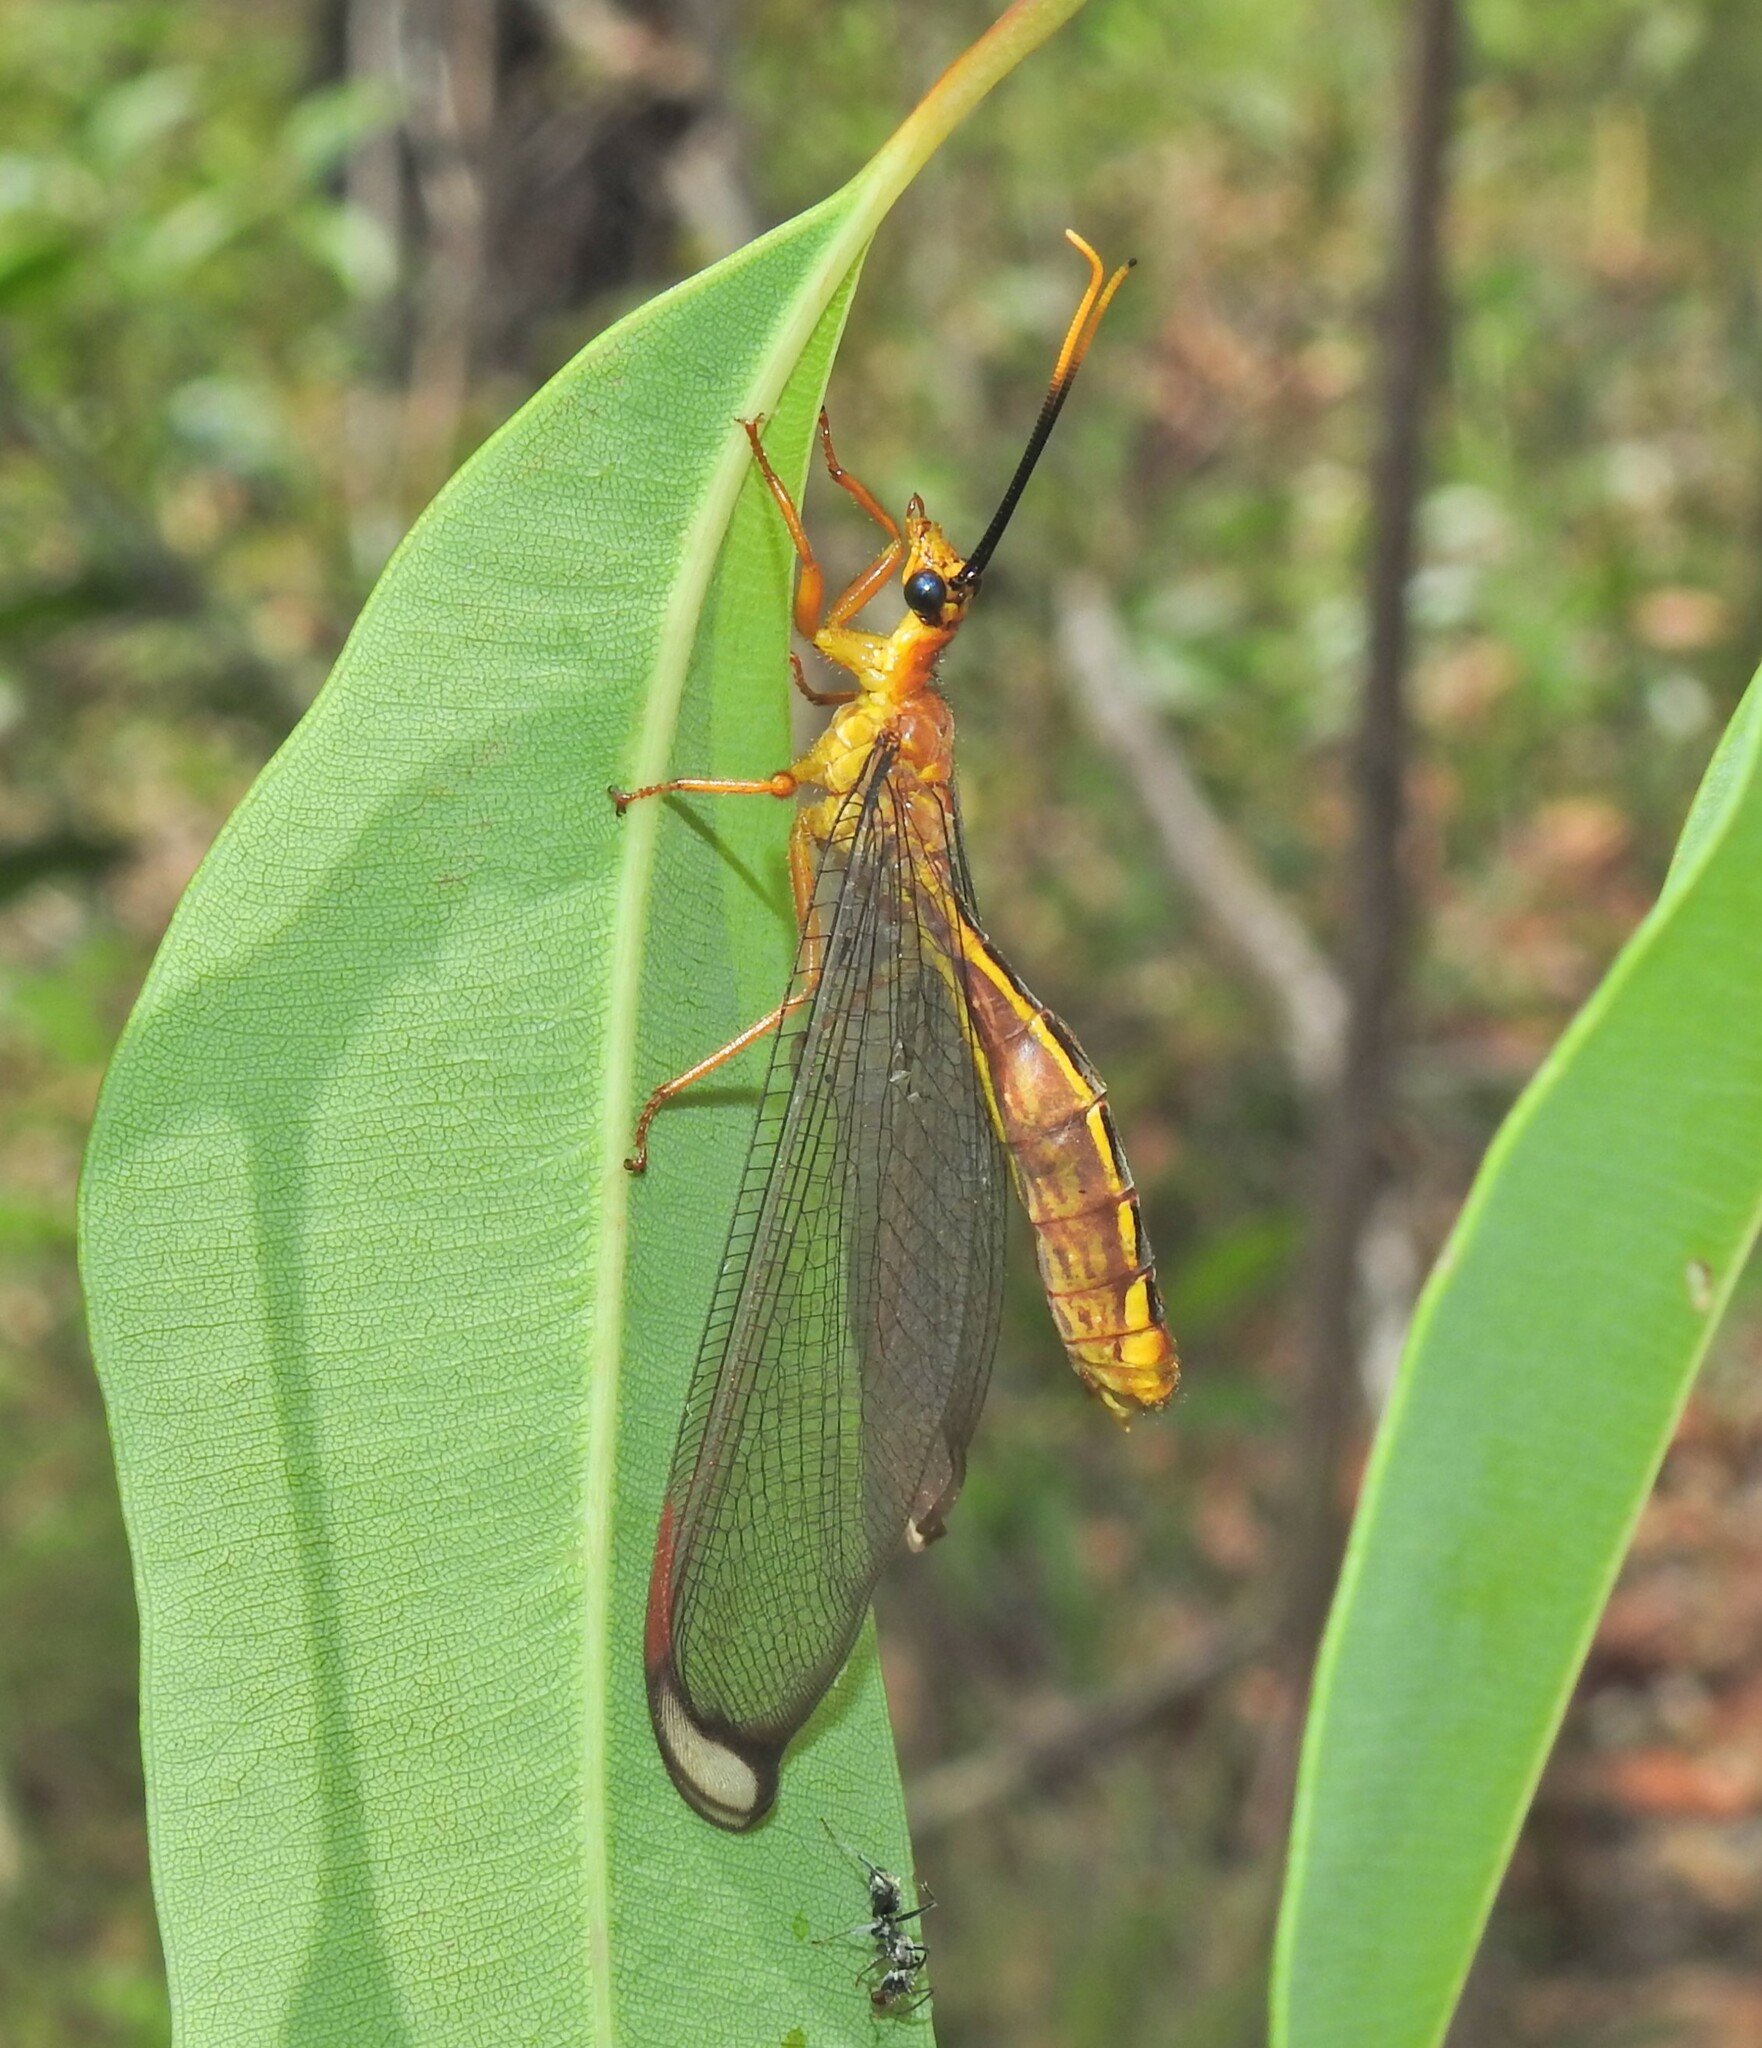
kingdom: Animalia
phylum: Arthropoda
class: Insecta
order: Neuroptera
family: Nymphidae
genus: Nymphes
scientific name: Nymphes myrmeleonoides
